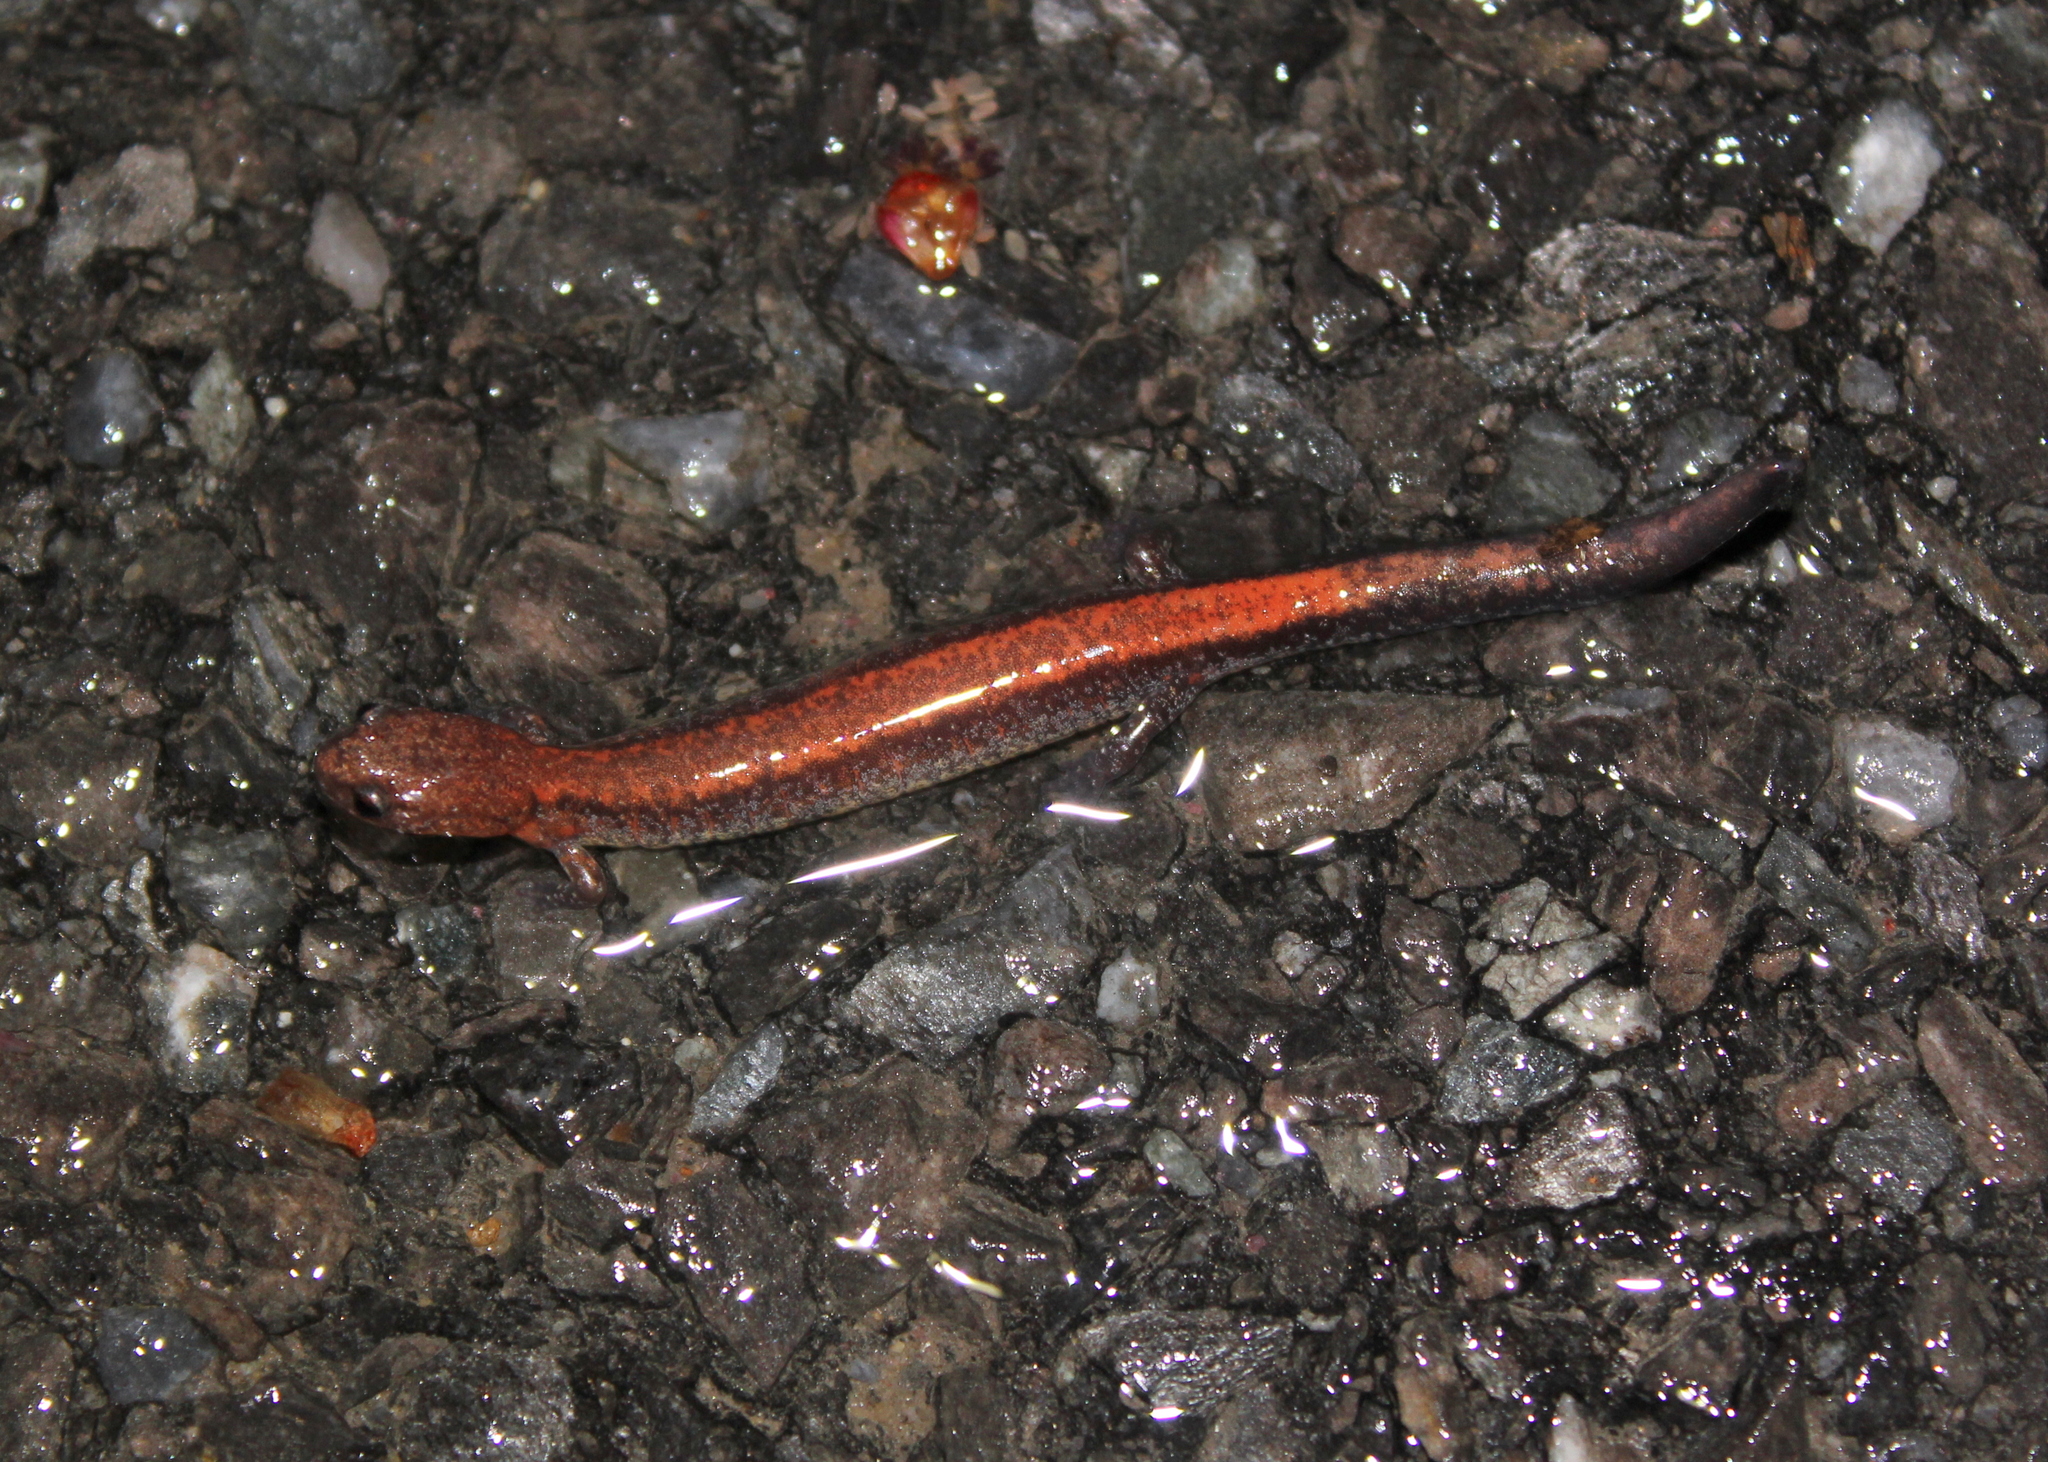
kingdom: Animalia
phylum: Chordata
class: Amphibia
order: Caudata
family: Plethodontidae
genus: Plethodon
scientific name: Plethodon cinereus
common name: Redback salamander
